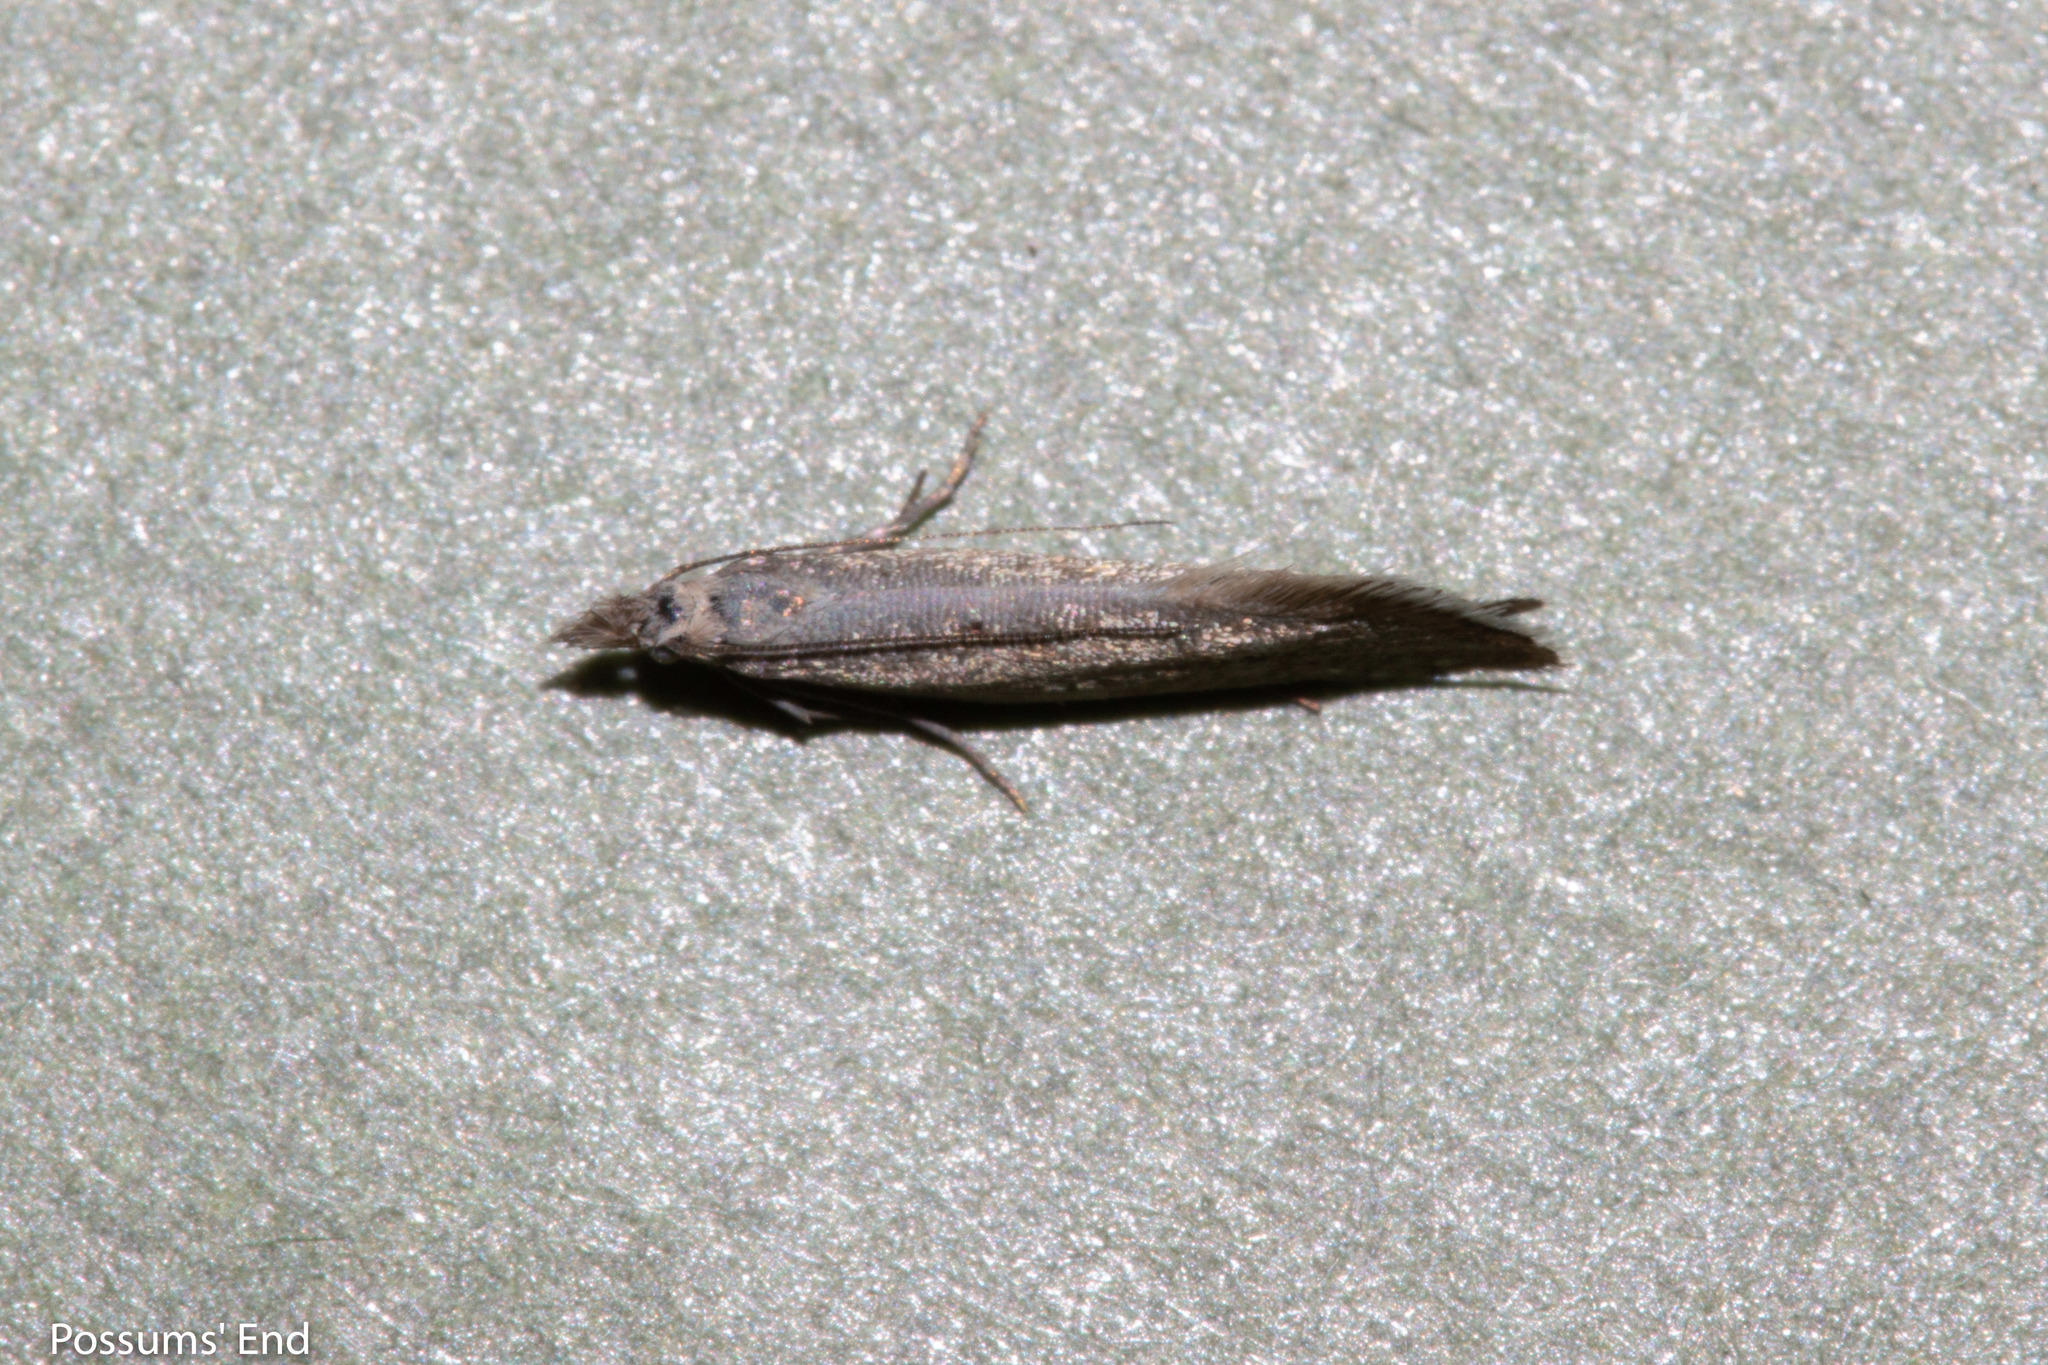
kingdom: Animalia
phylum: Arthropoda
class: Insecta
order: Lepidoptera
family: Glyphipterigidae
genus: Glyphipterix
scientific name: Glyphipterix achlyoessa
